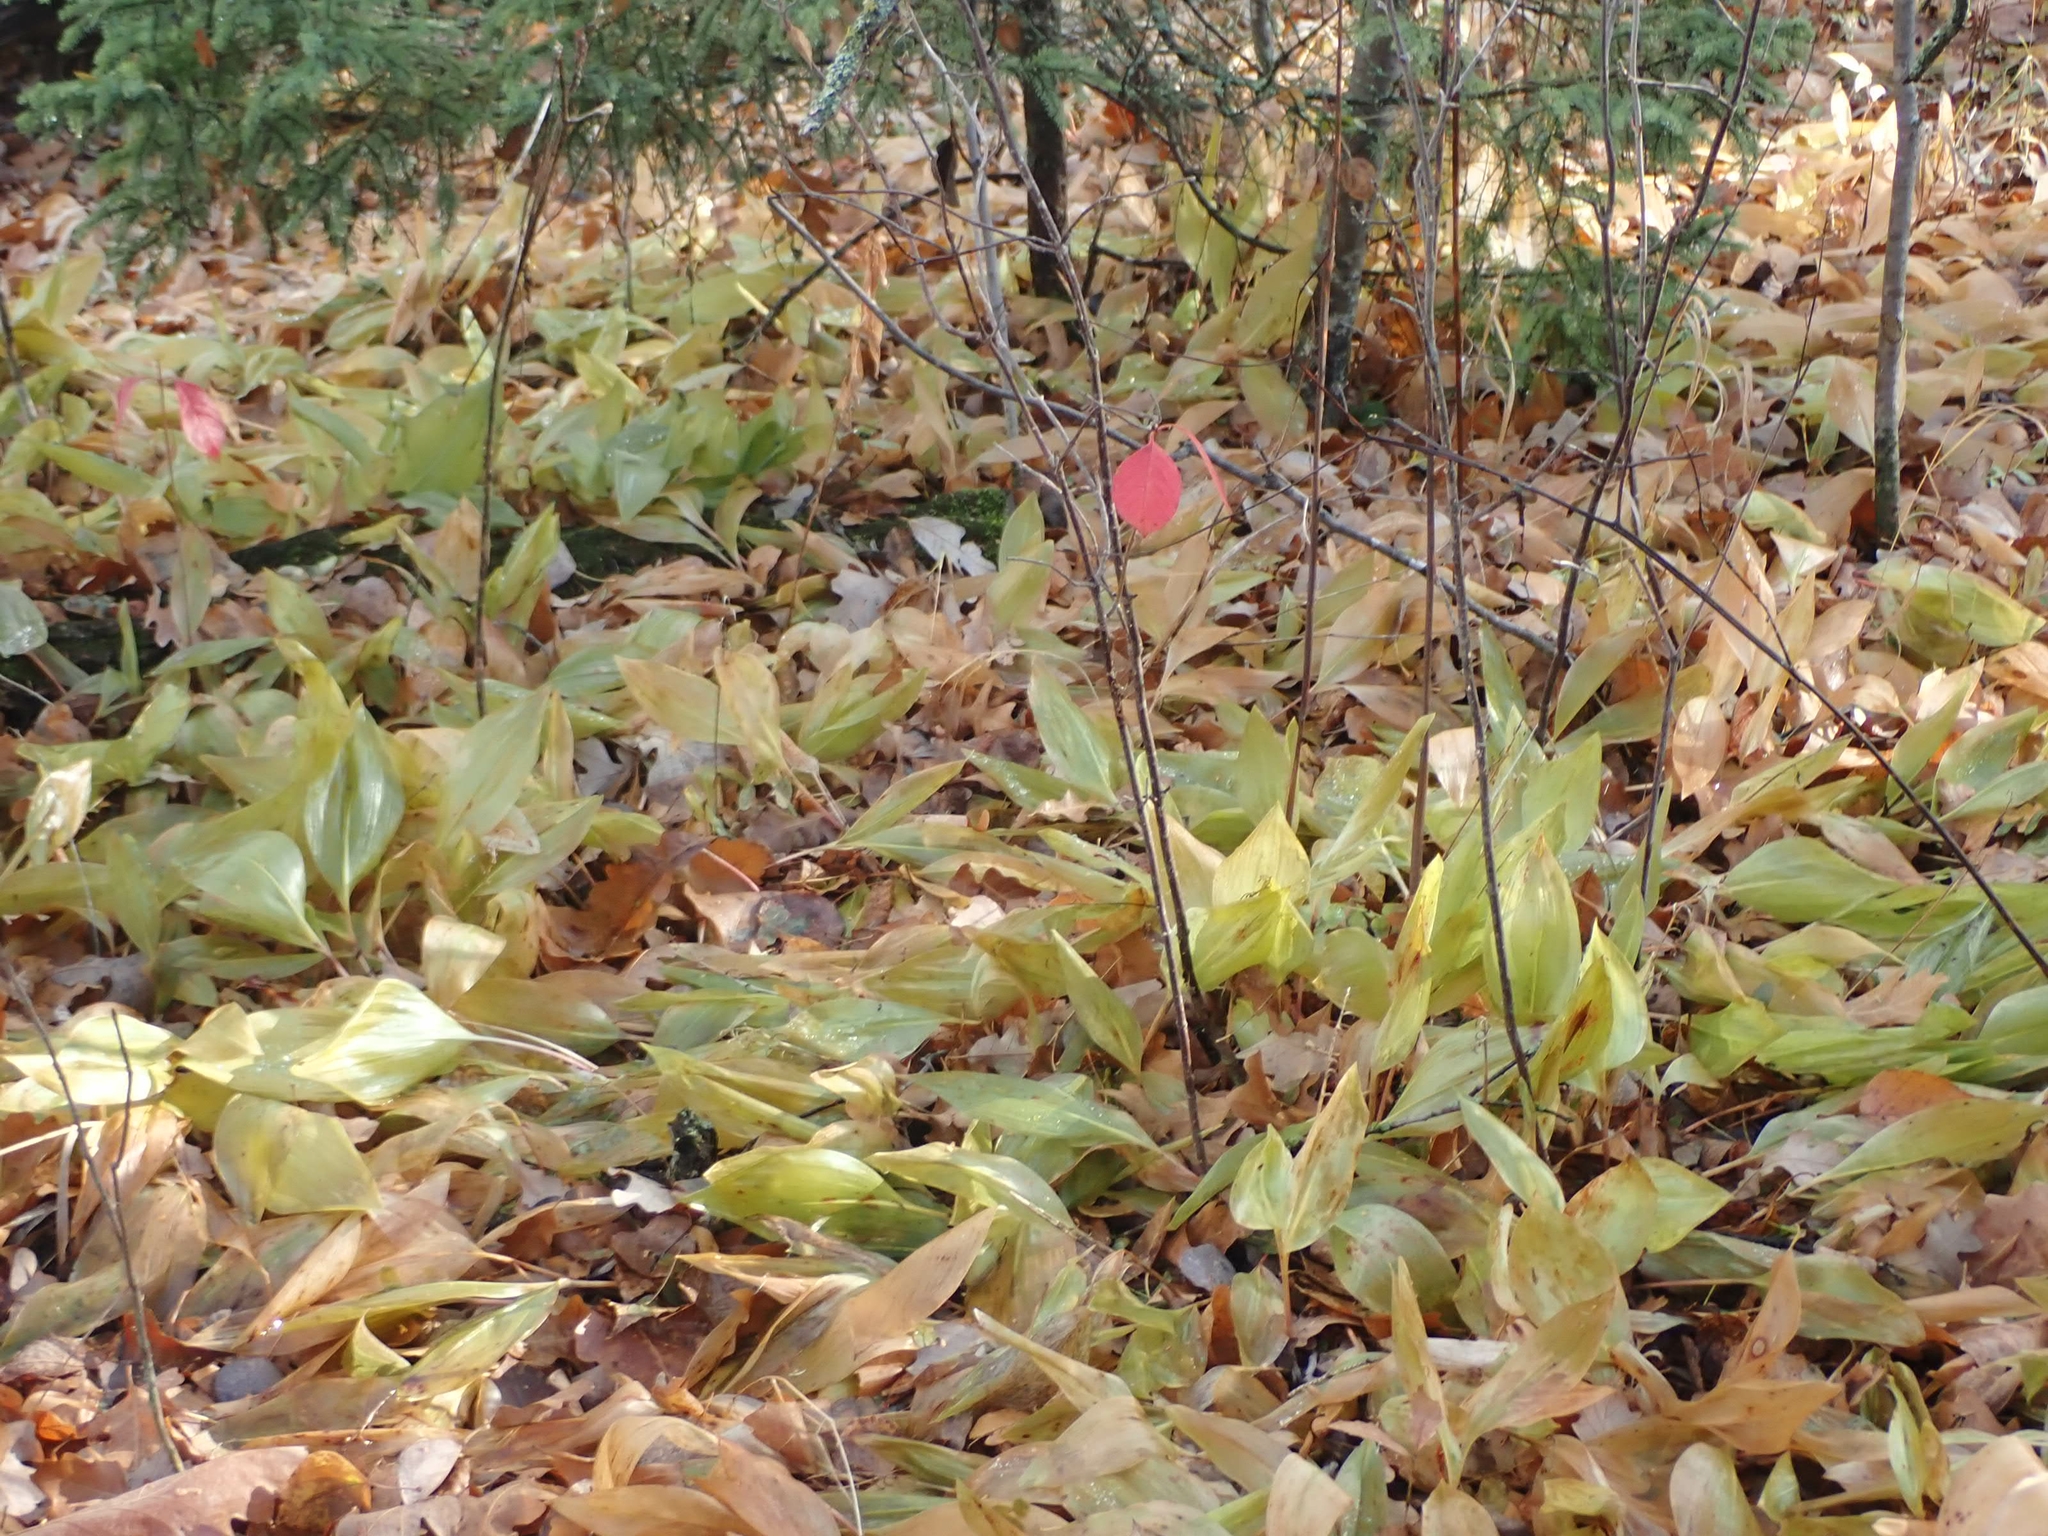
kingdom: Plantae
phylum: Tracheophyta
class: Liliopsida
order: Asparagales
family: Asparagaceae
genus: Convallaria
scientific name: Convallaria majalis
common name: Lily-of-the-valley
